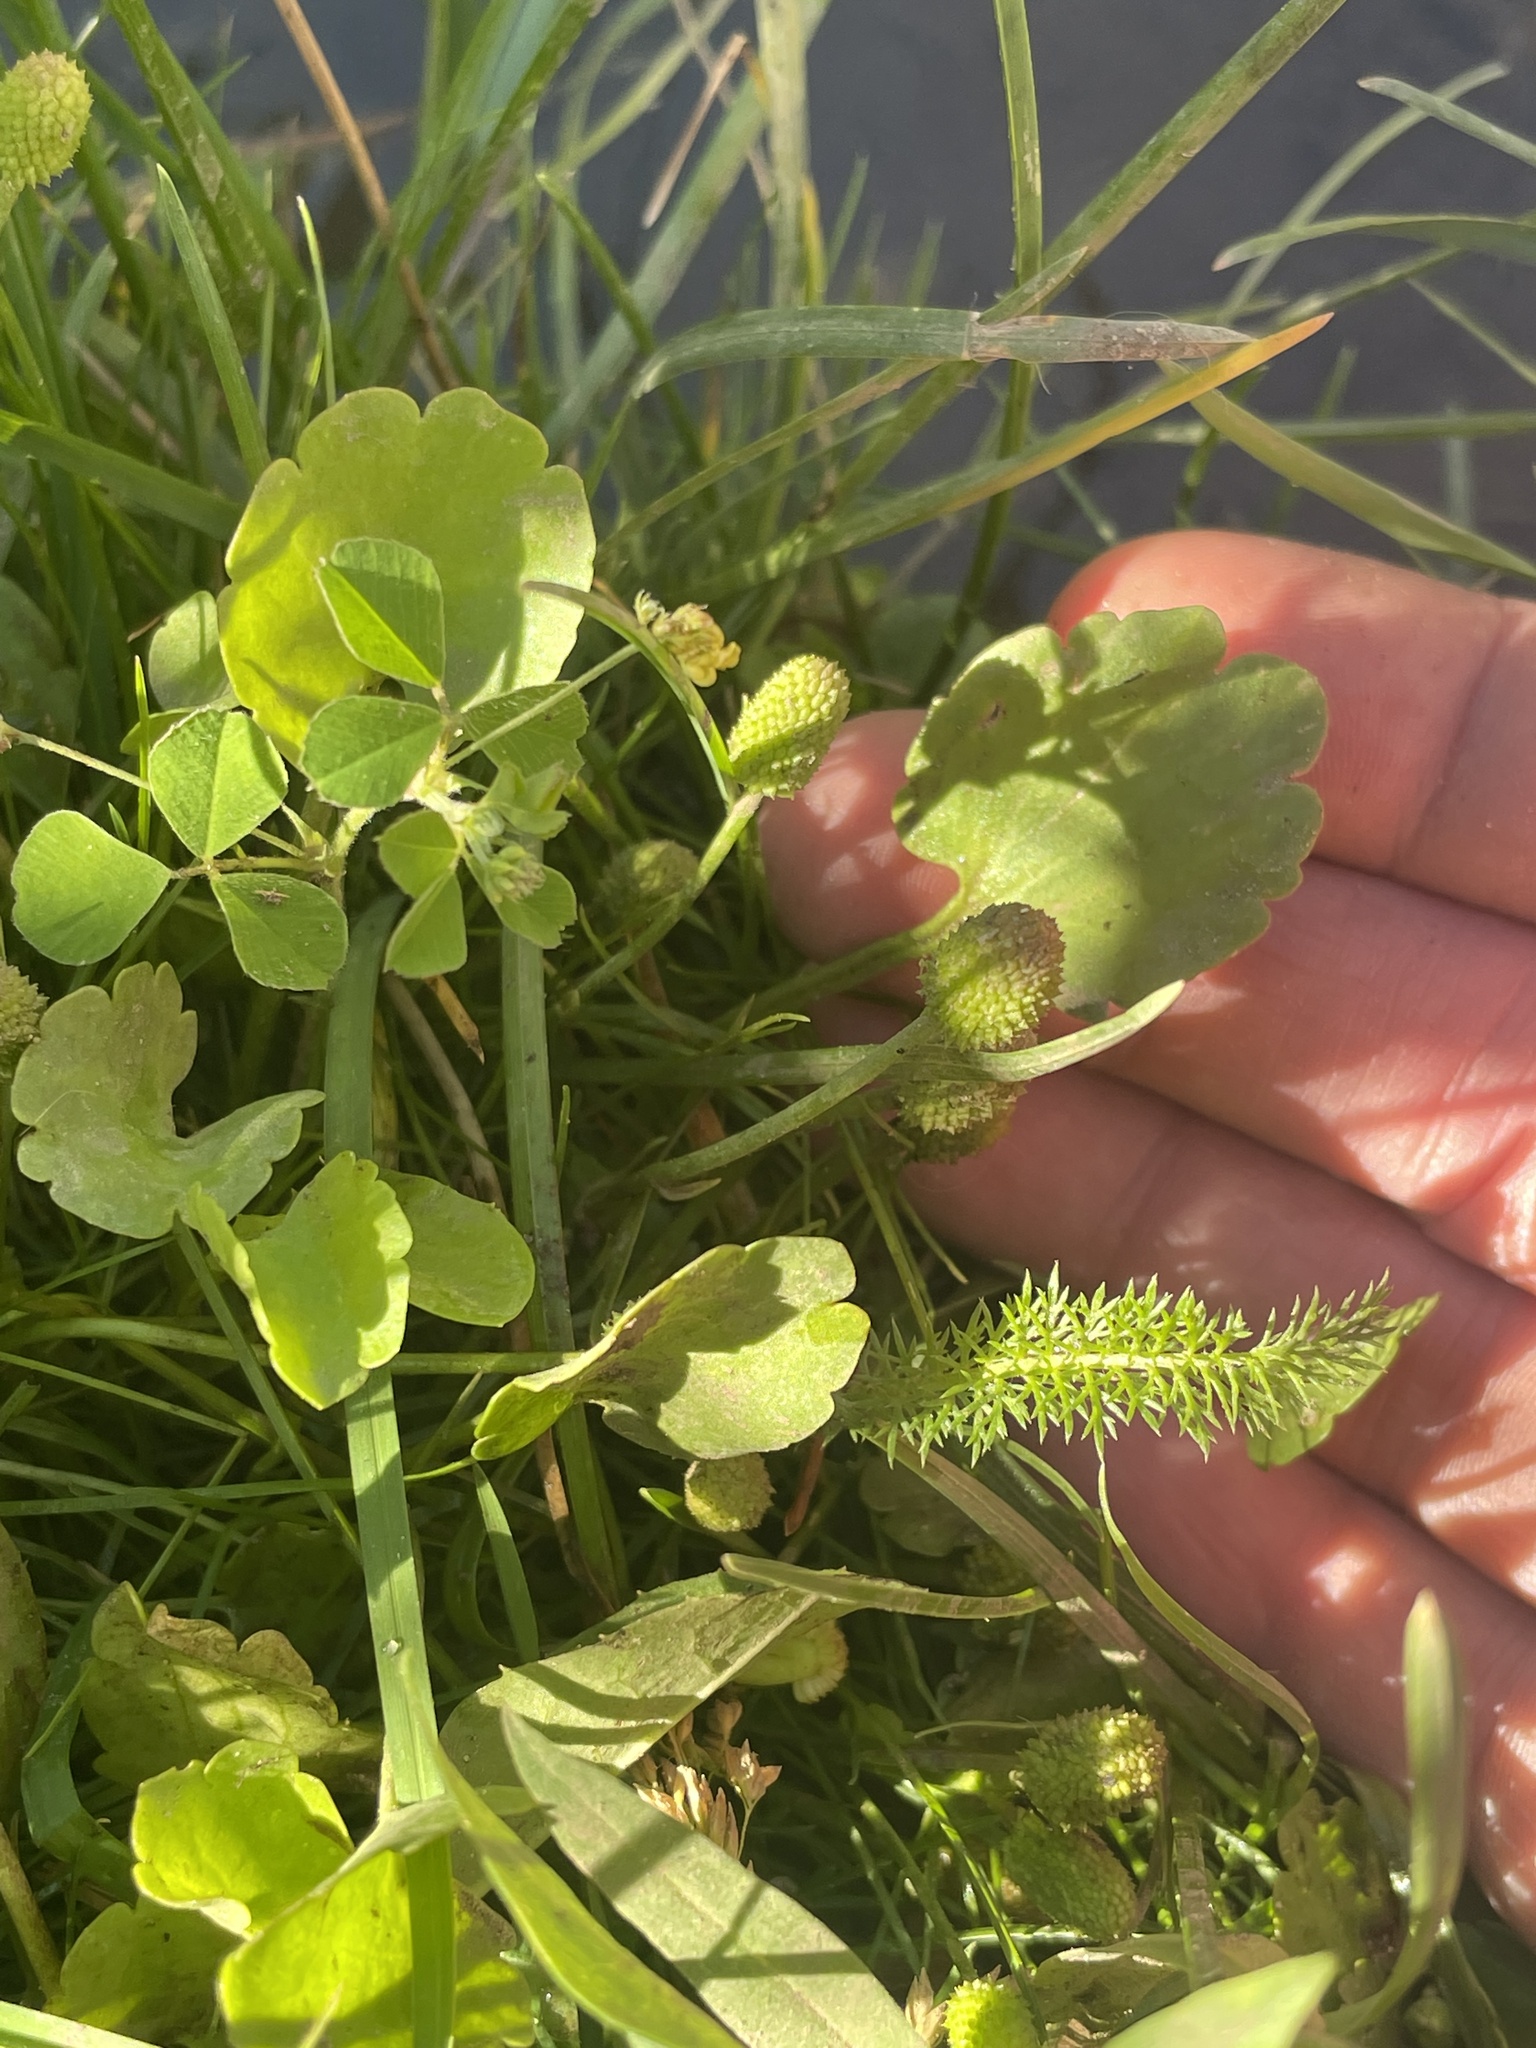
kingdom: Plantae
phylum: Tracheophyta
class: Magnoliopsida
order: Ranunculales
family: Ranunculaceae
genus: Halerpestes
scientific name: Halerpestes cymbalaria
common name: Seaside crowfoot
